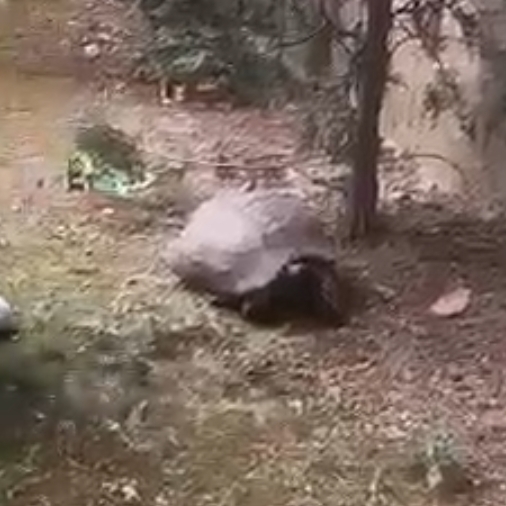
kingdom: Animalia
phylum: Chordata
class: Testudines
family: Testudinidae
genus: Testudo
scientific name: Testudo graeca
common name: Common tortoise
